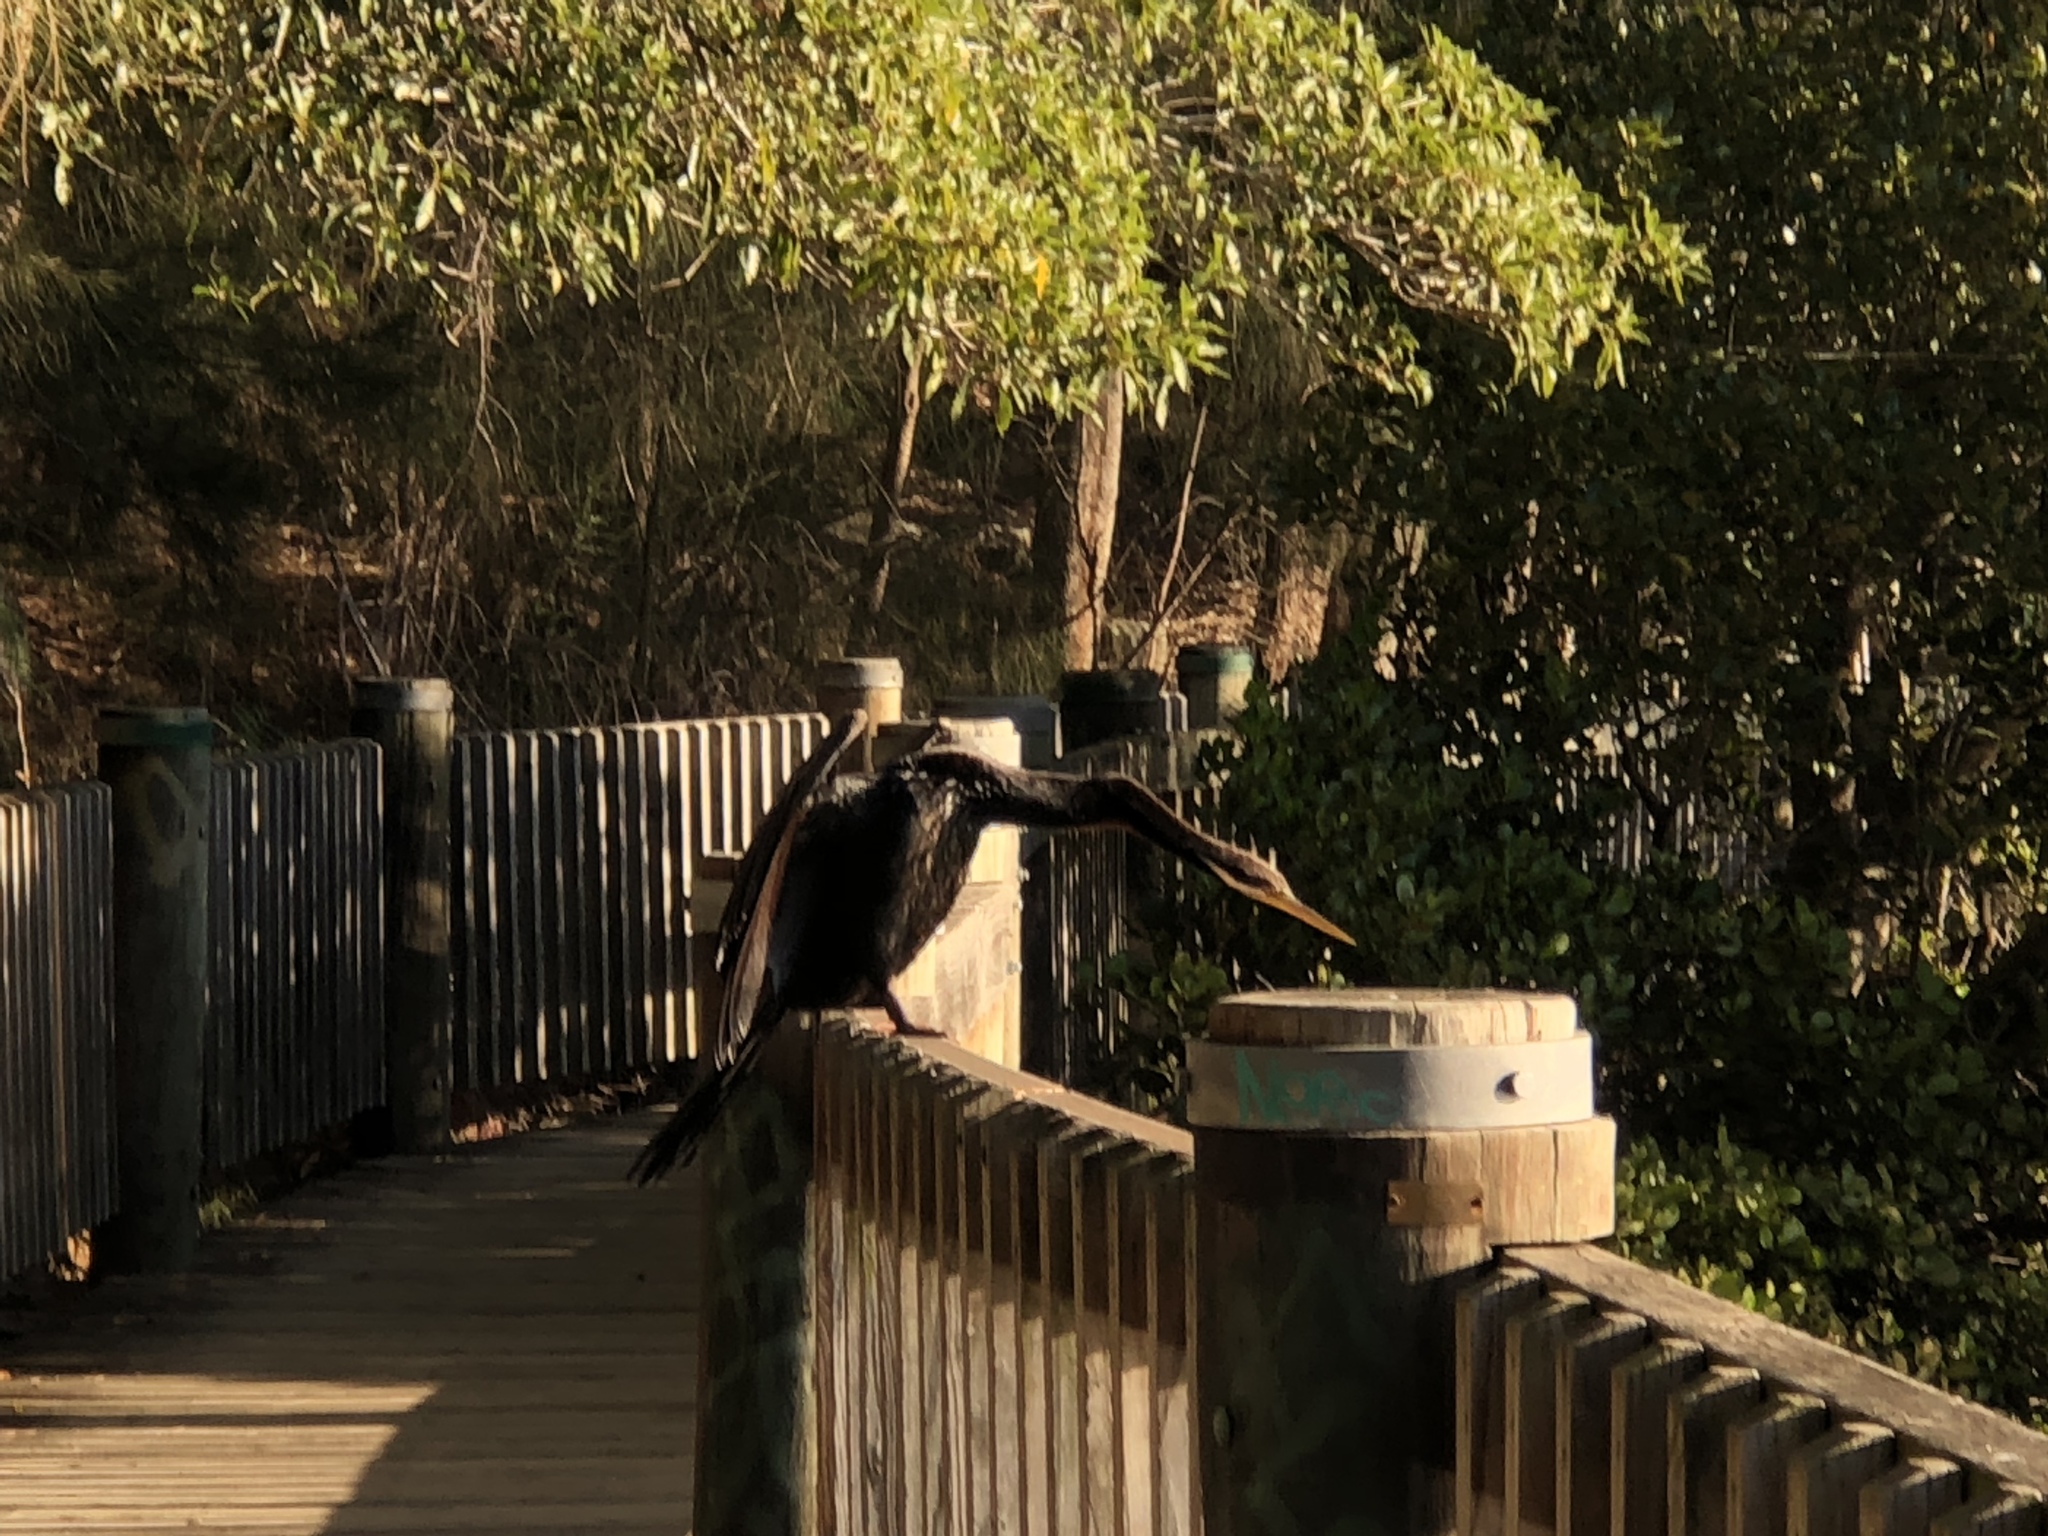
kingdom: Animalia
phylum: Chordata
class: Aves
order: Suliformes
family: Anhingidae
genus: Anhinga
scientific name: Anhinga novaehollandiae
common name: Australasian darter
